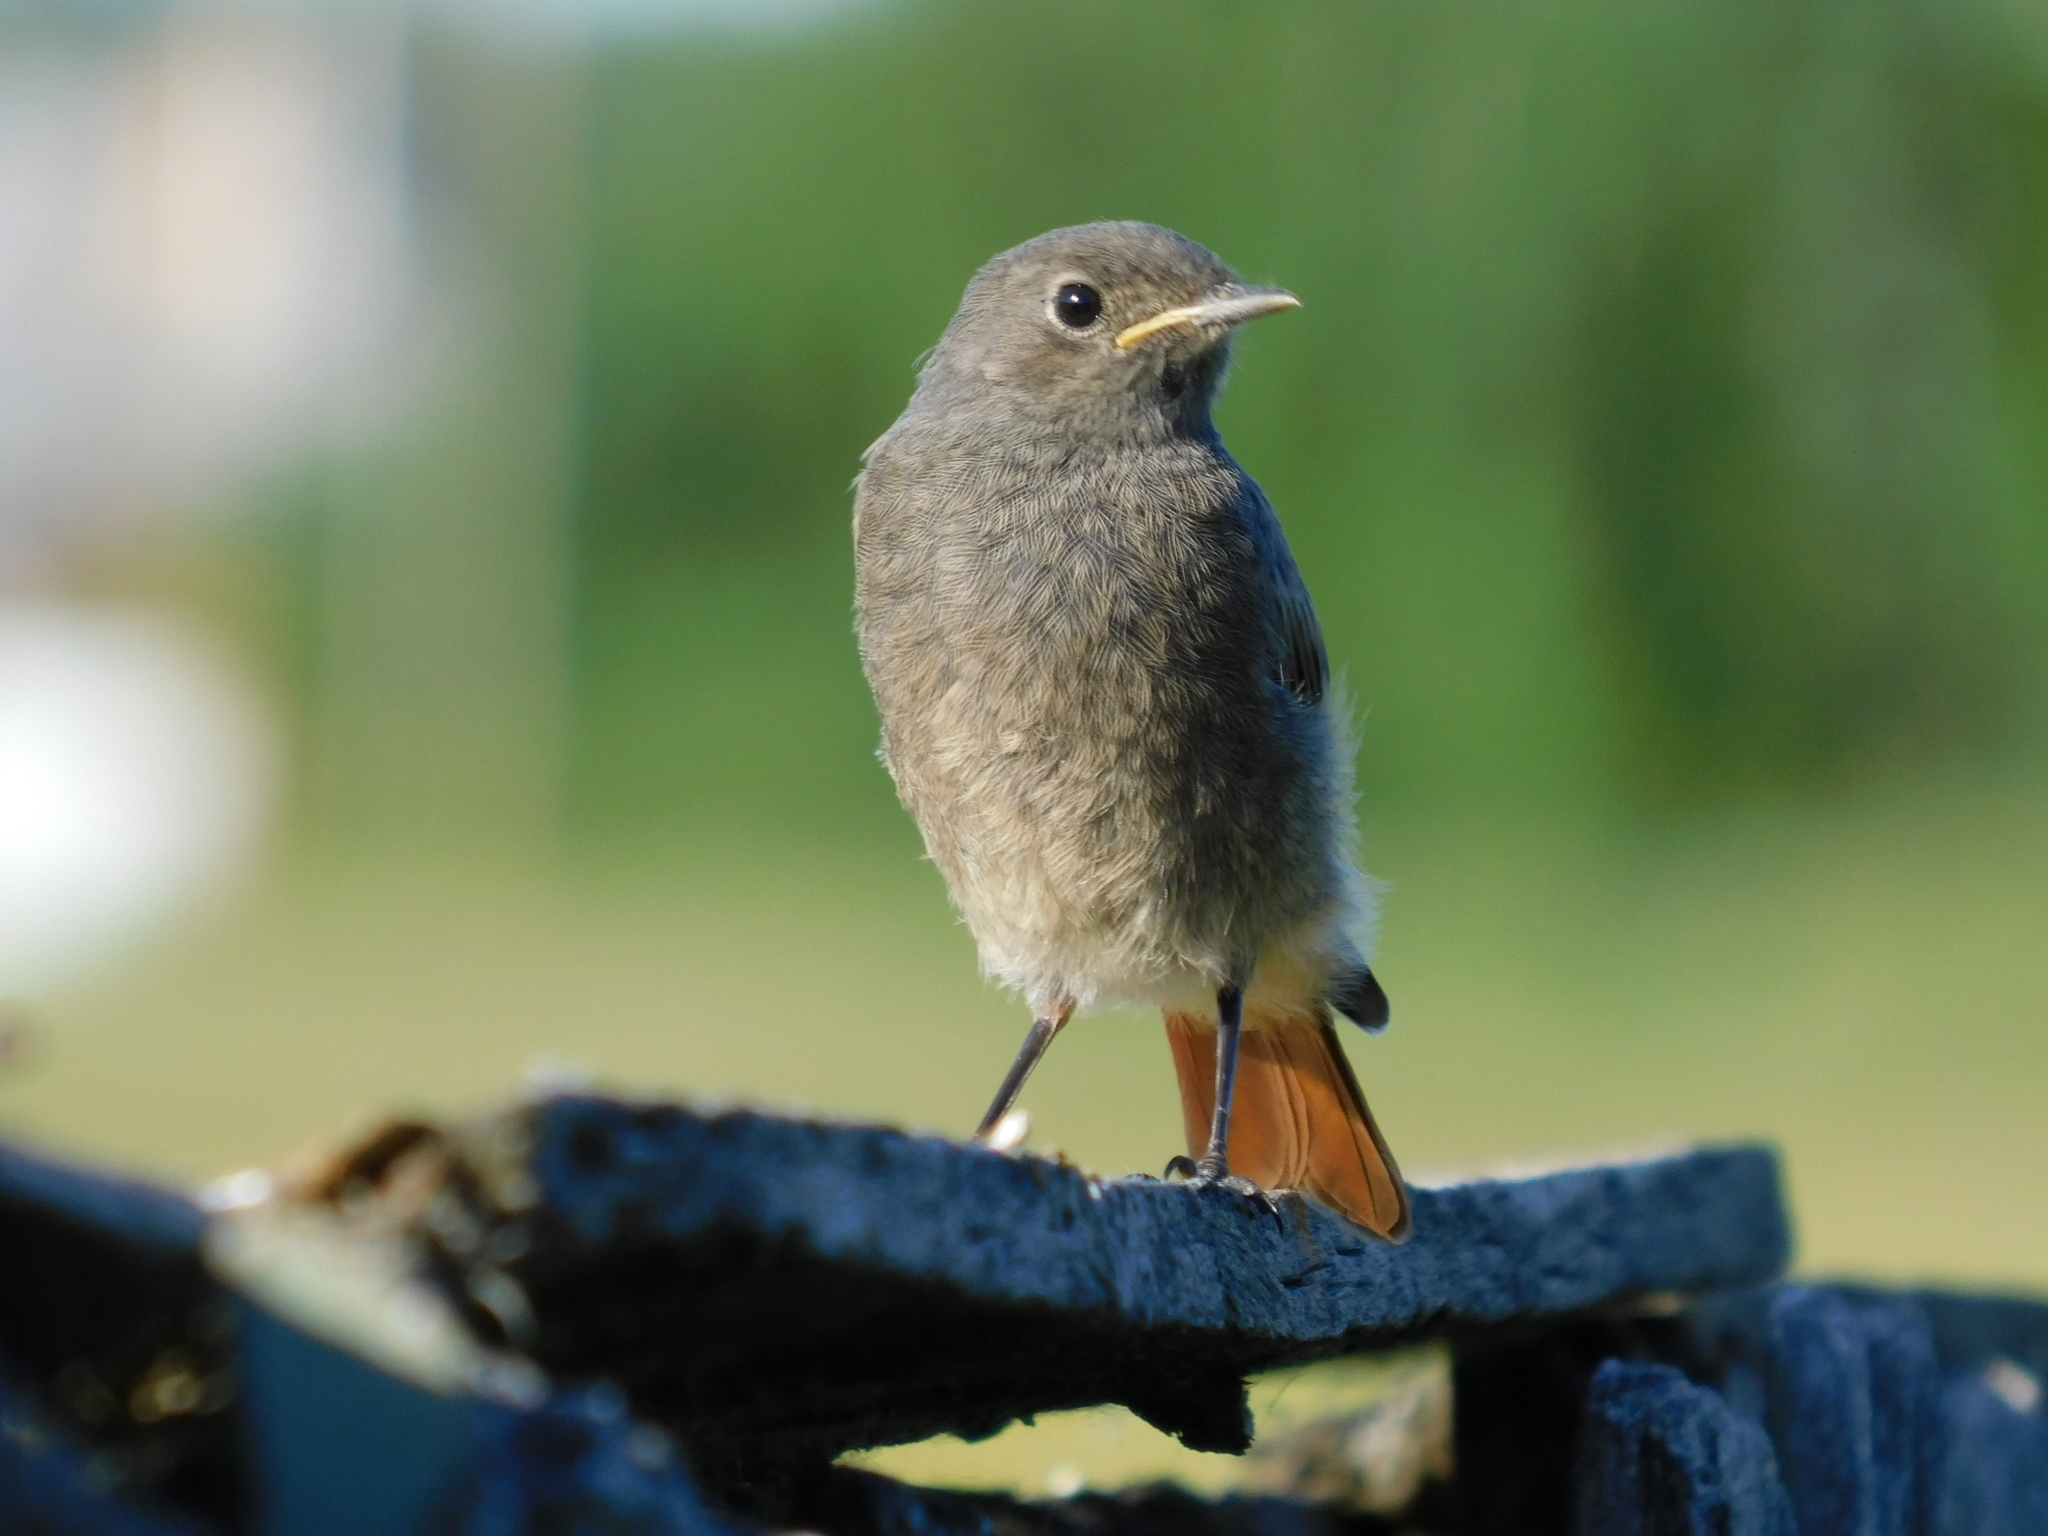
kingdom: Animalia
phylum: Chordata
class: Aves
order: Passeriformes
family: Muscicapidae
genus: Phoenicurus
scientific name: Phoenicurus ochruros
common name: Black redstart
